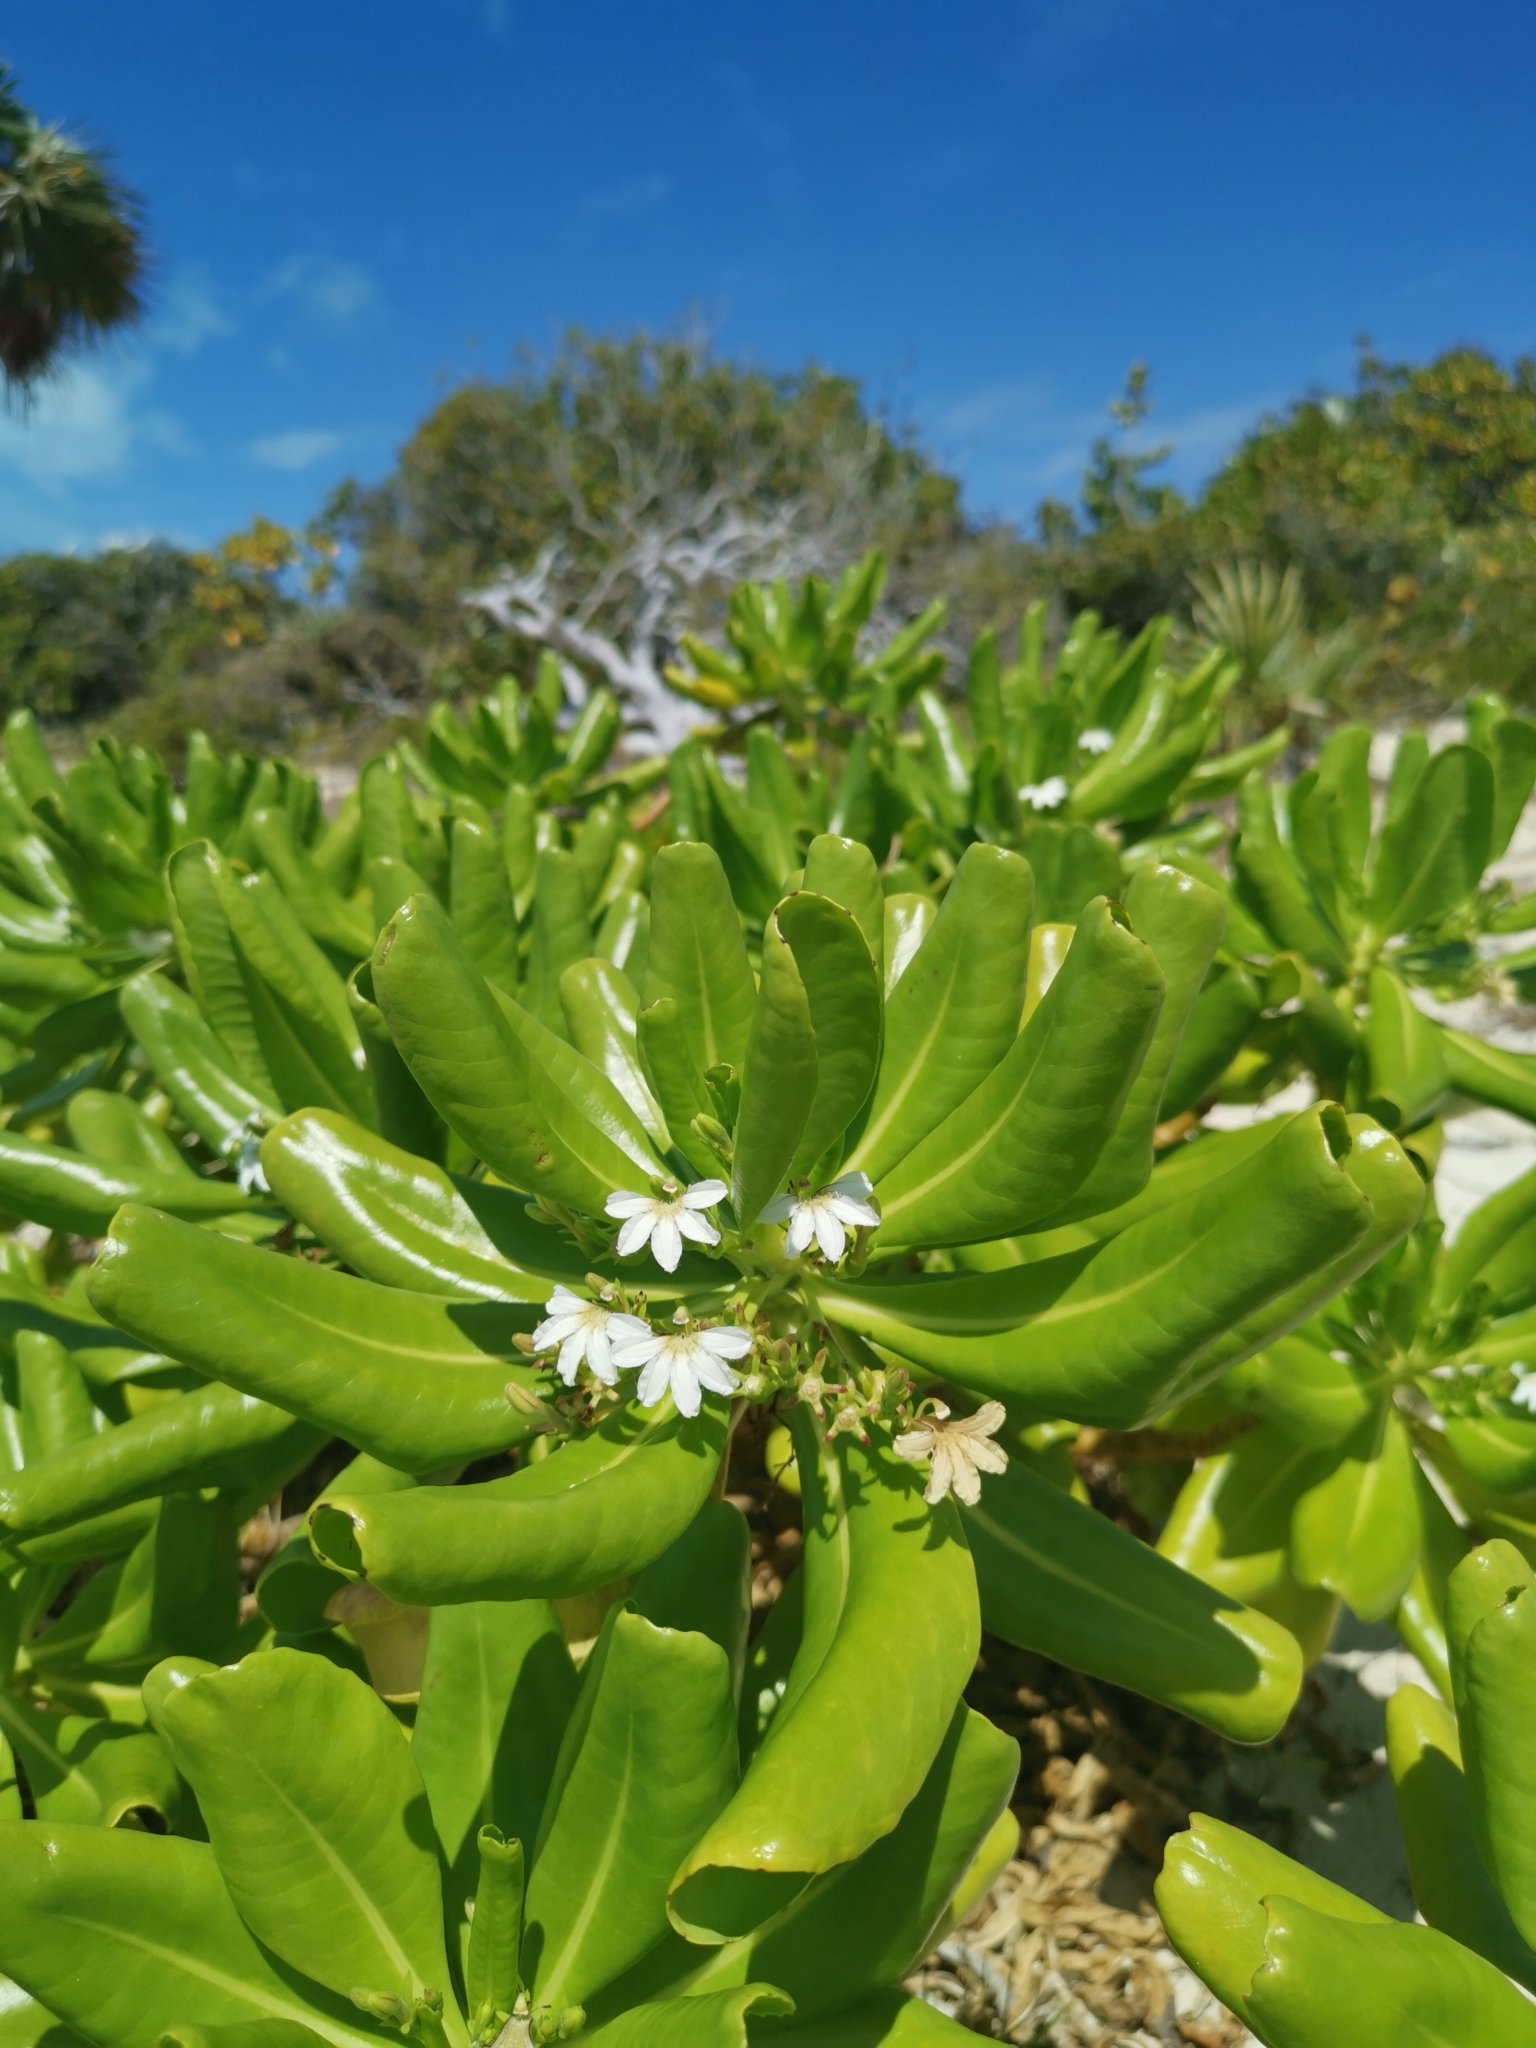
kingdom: Plantae
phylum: Tracheophyta
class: Magnoliopsida
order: Asterales
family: Goodeniaceae
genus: Scaevola
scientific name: Scaevola taccada
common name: Sea lettucetree
